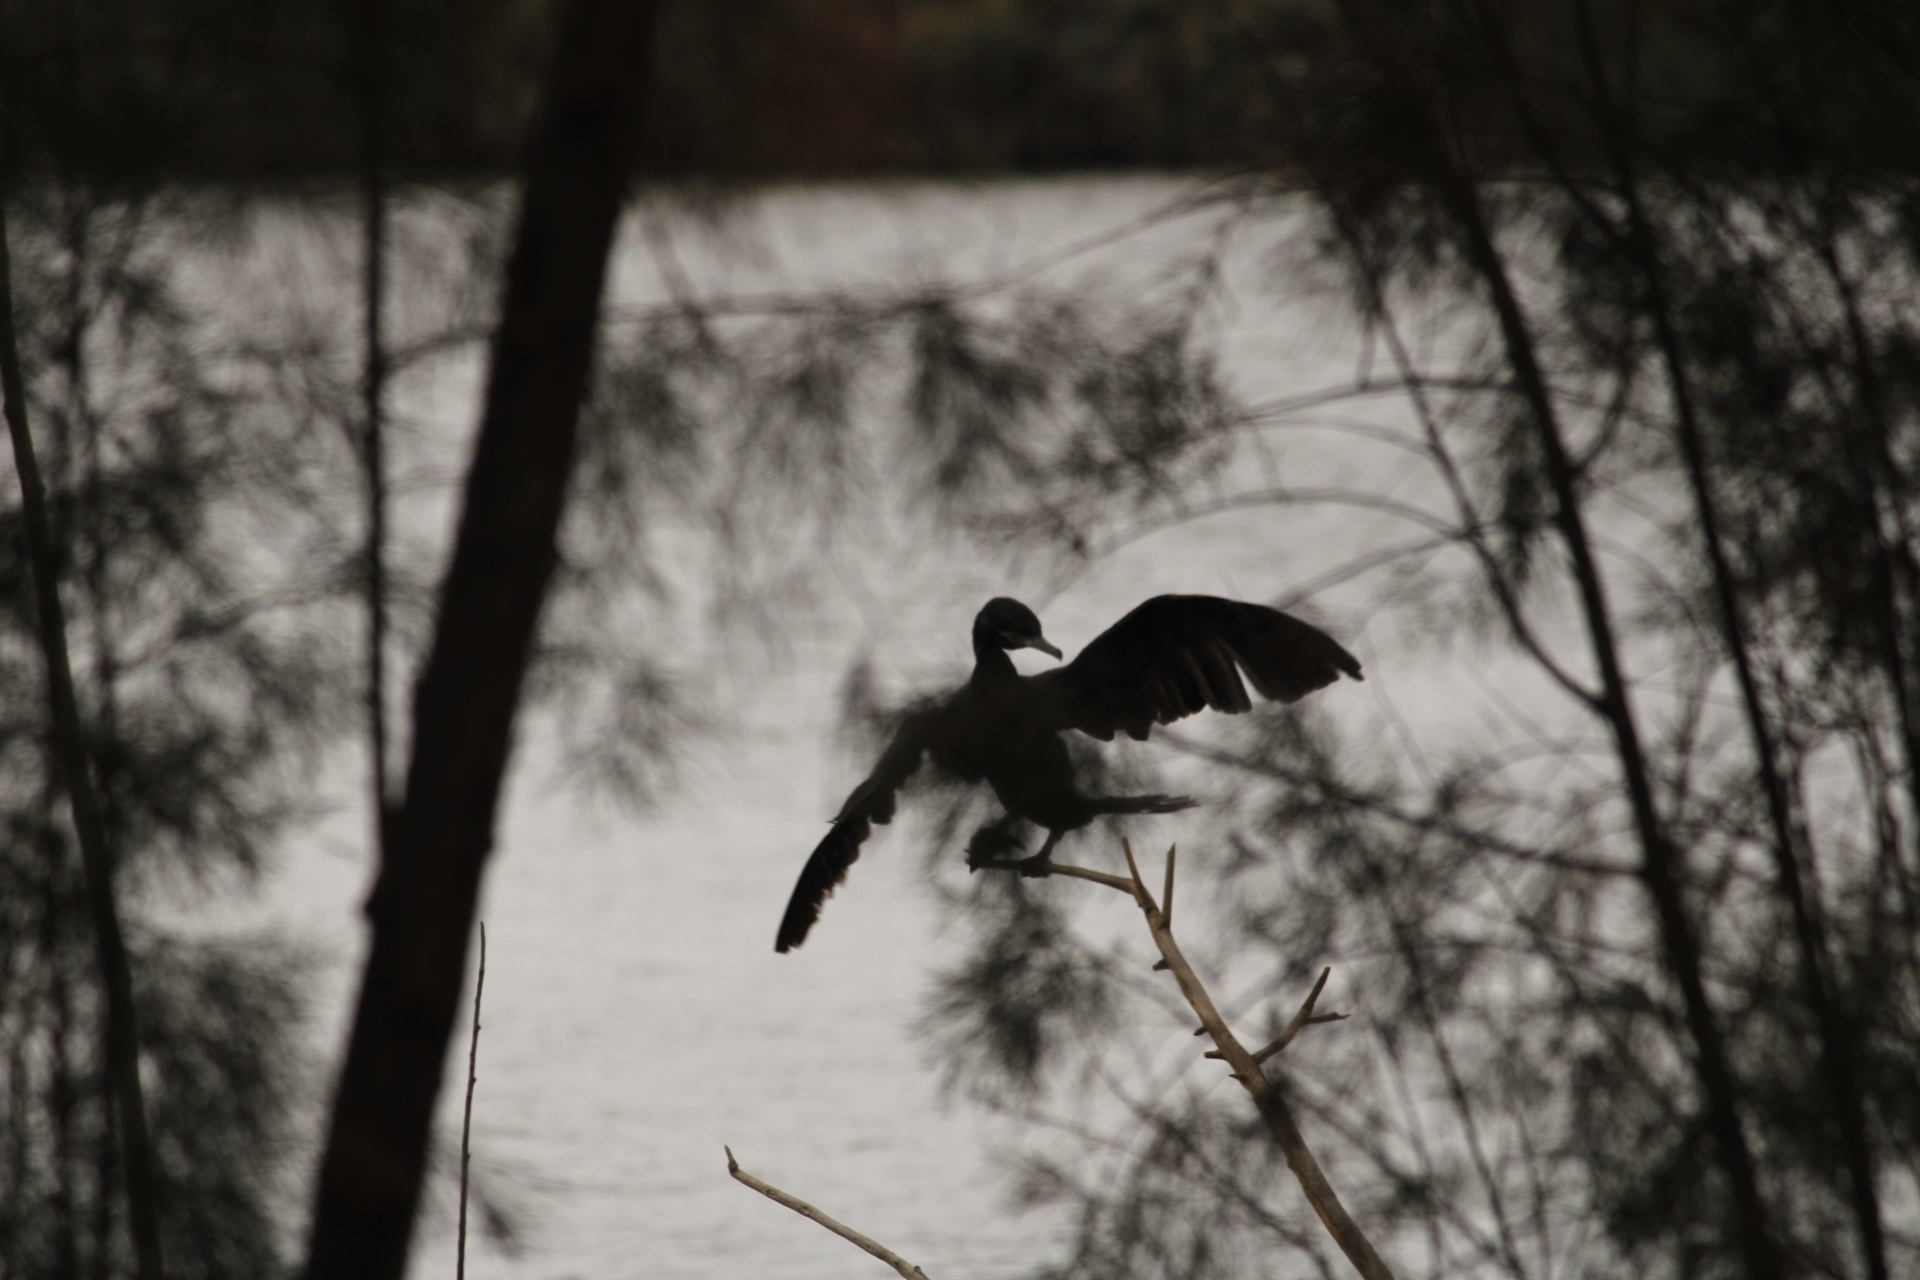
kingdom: Animalia
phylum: Chordata
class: Aves
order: Suliformes
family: Phalacrocoracidae
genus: Phalacrocorax
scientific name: Phalacrocorax brasilianus
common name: Neotropic cormorant
